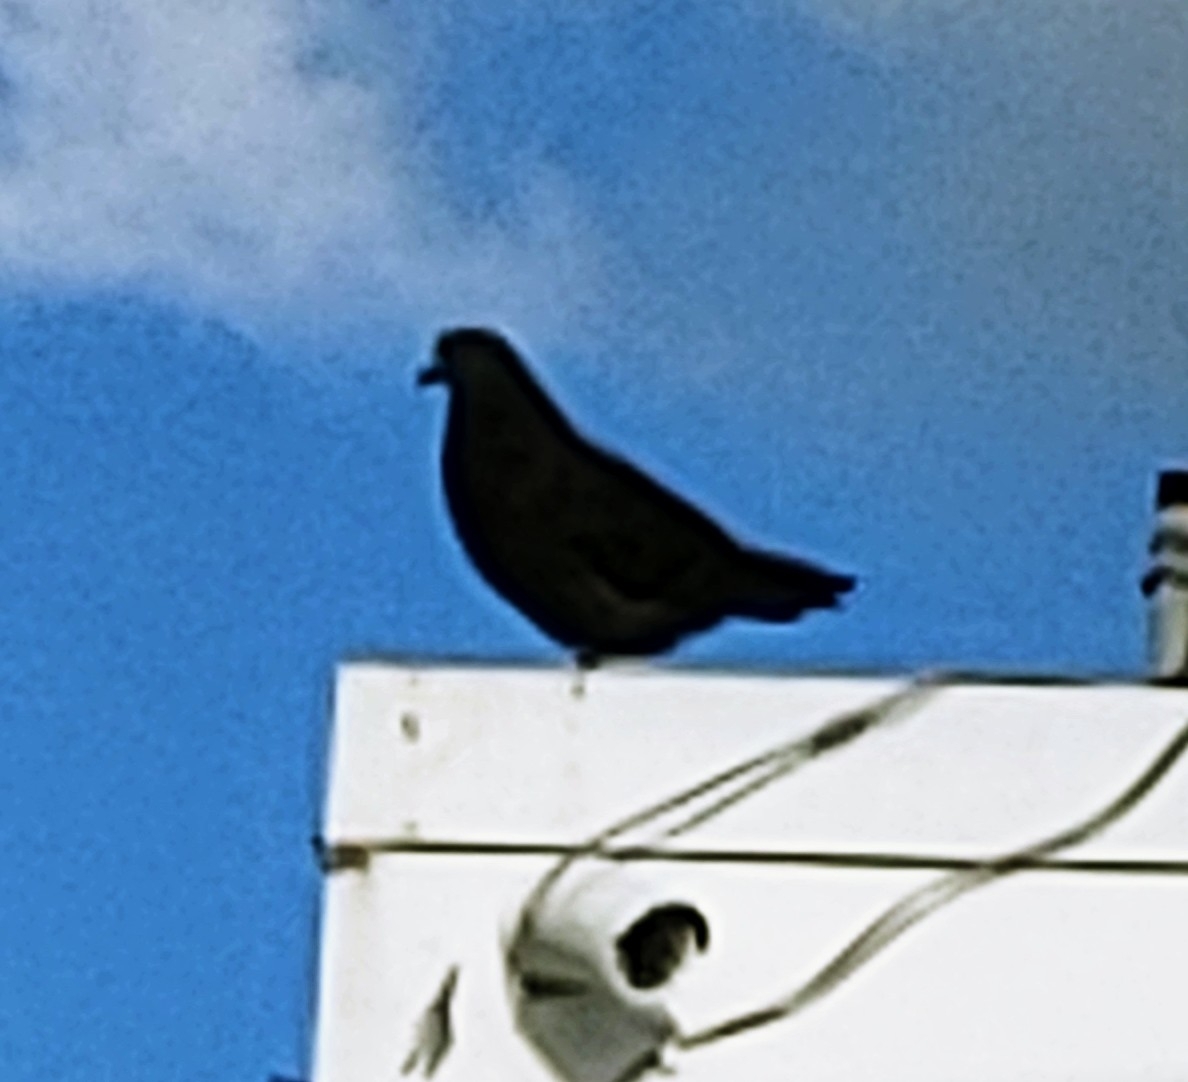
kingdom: Animalia
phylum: Chordata
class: Aves
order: Columbiformes
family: Columbidae
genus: Columba
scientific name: Columba livia
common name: Rock pigeon
